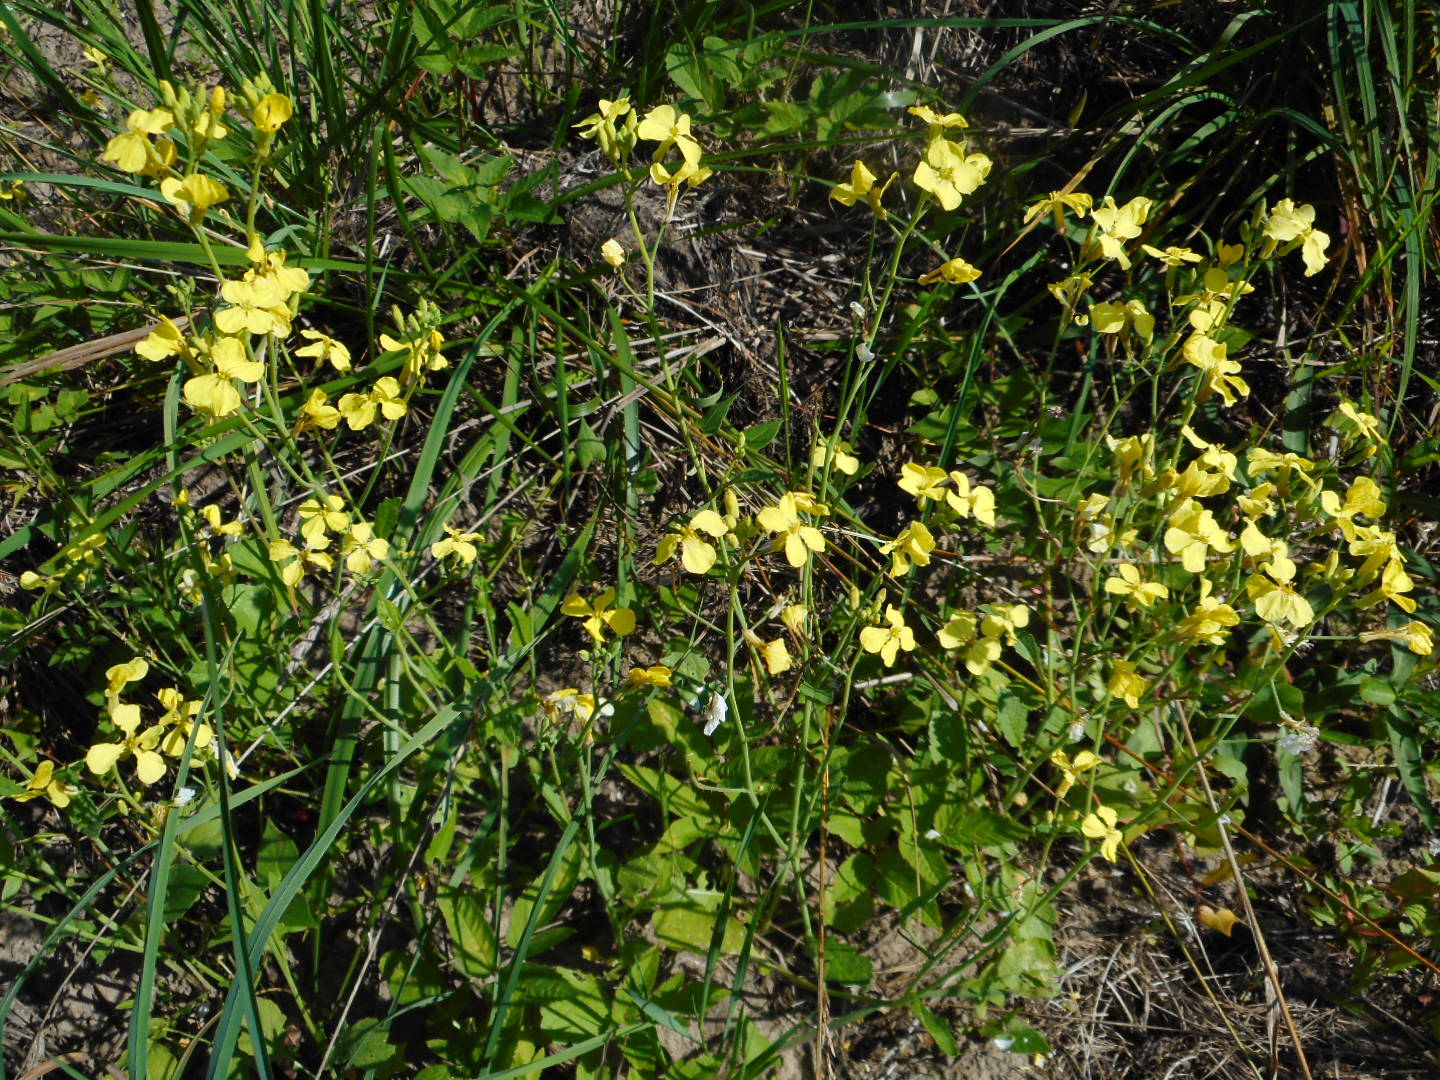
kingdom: Plantae
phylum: Tracheophyta
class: Magnoliopsida
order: Brassicales
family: Brassicaceae
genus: Raphanus
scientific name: Raphanus raphanistrum
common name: Wild radish
